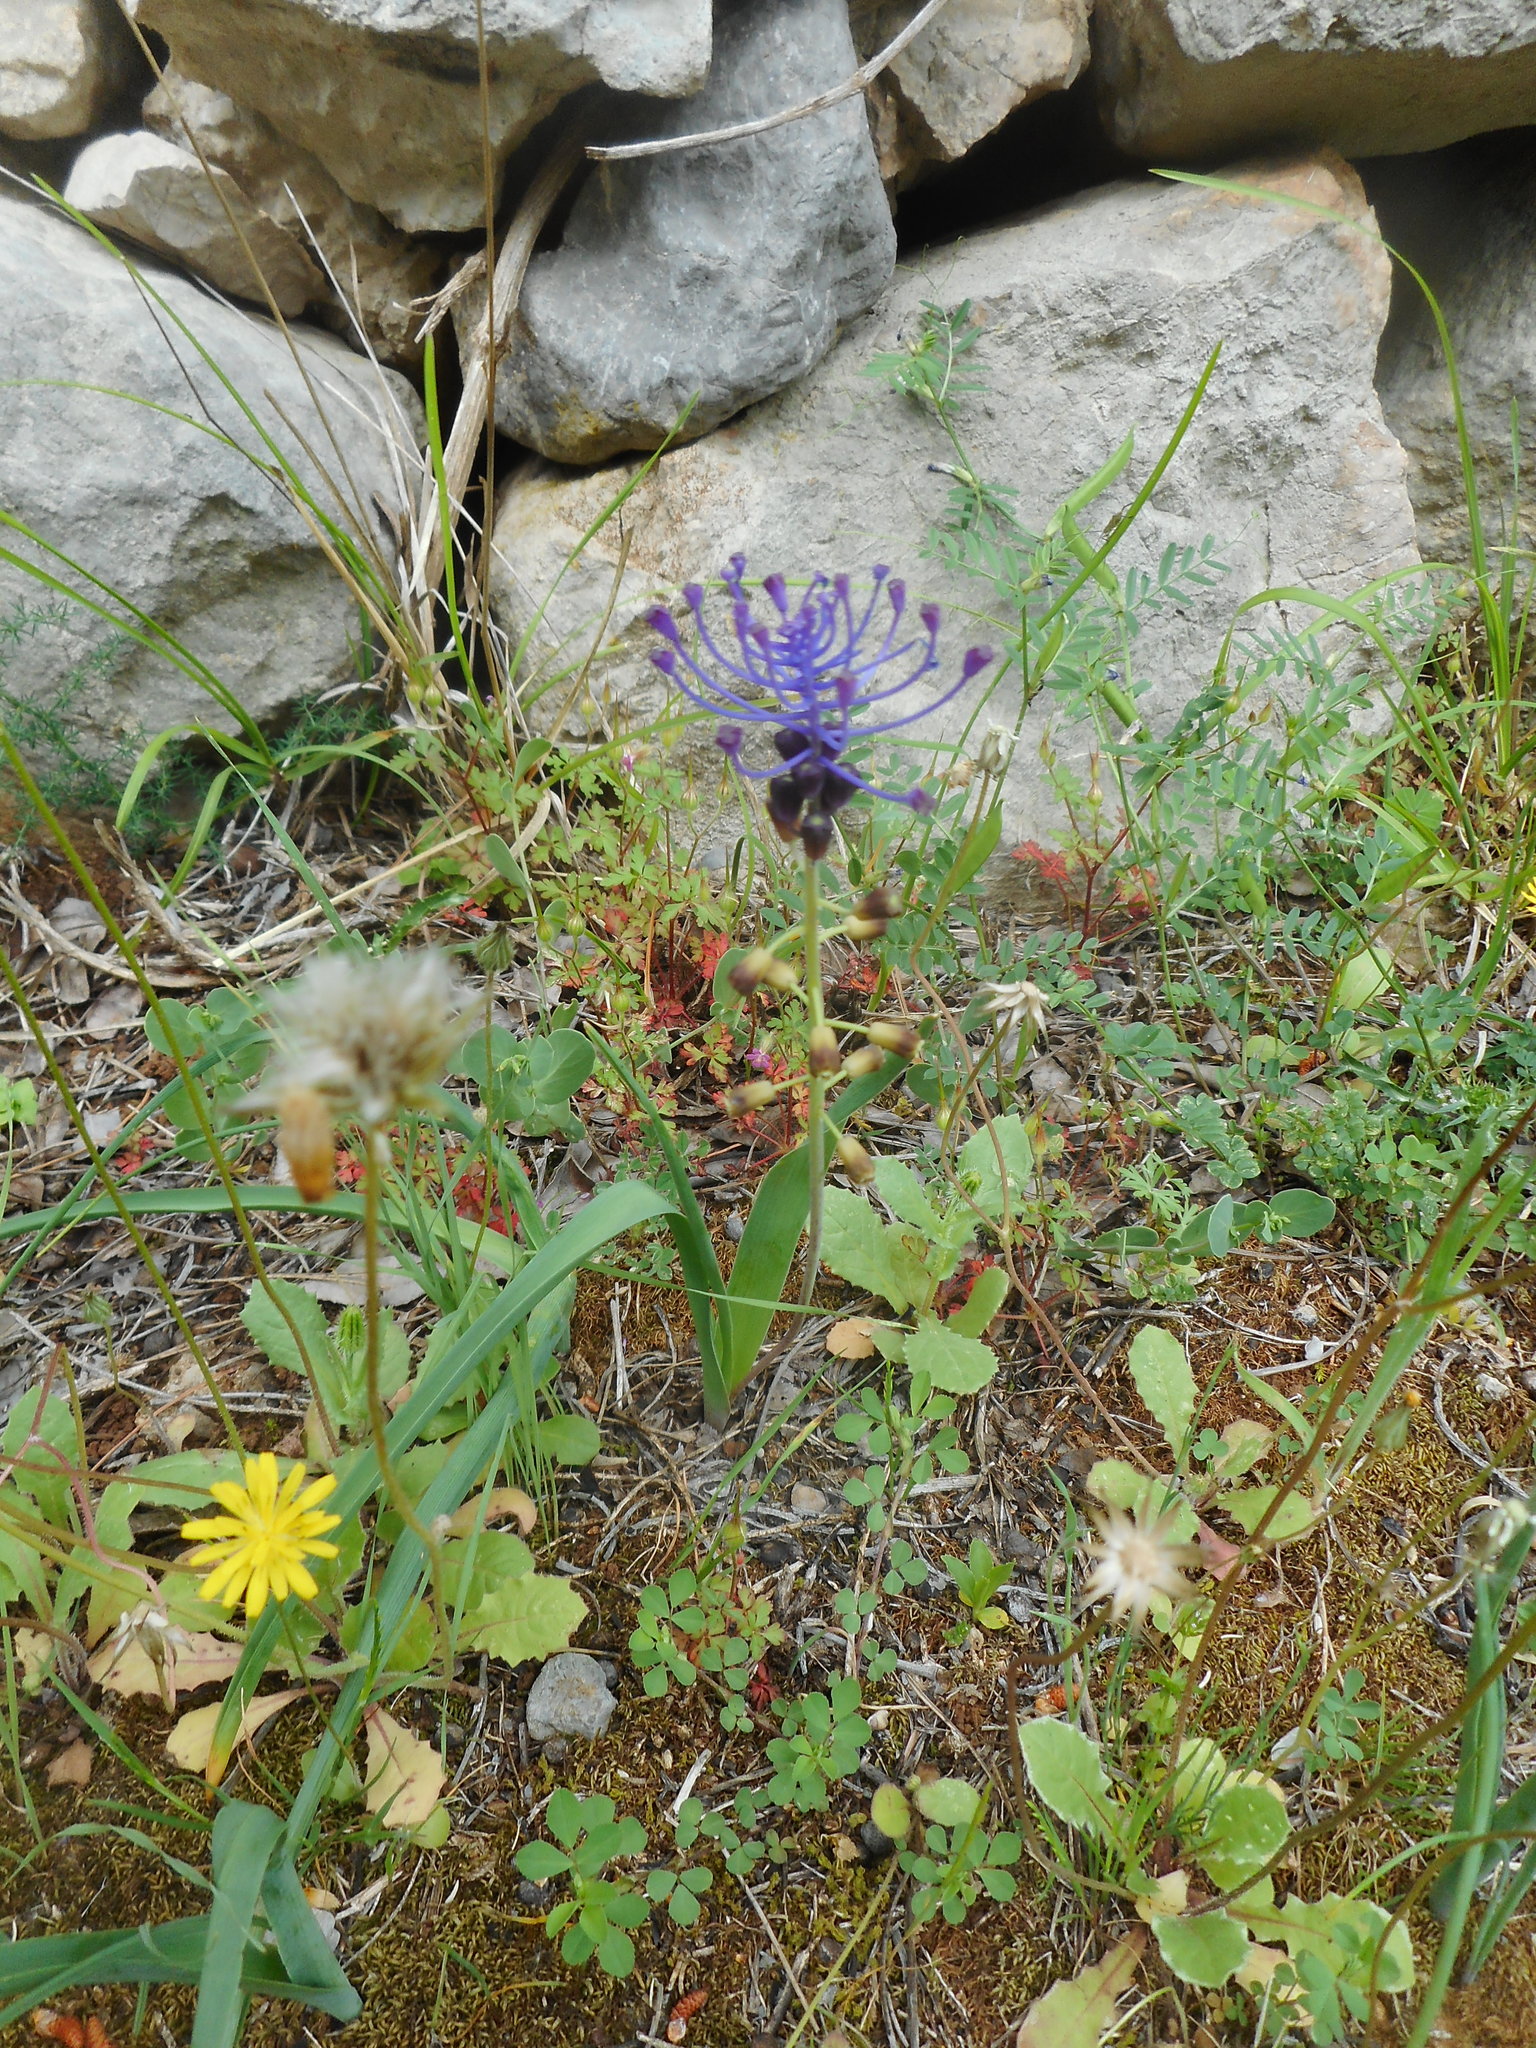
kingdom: Plantae
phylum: Tracheophyta
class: Liliopsida
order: Asparagales
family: Asparagaceae
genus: Muscari
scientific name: Muscari comosum
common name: Tassel hyacinth
